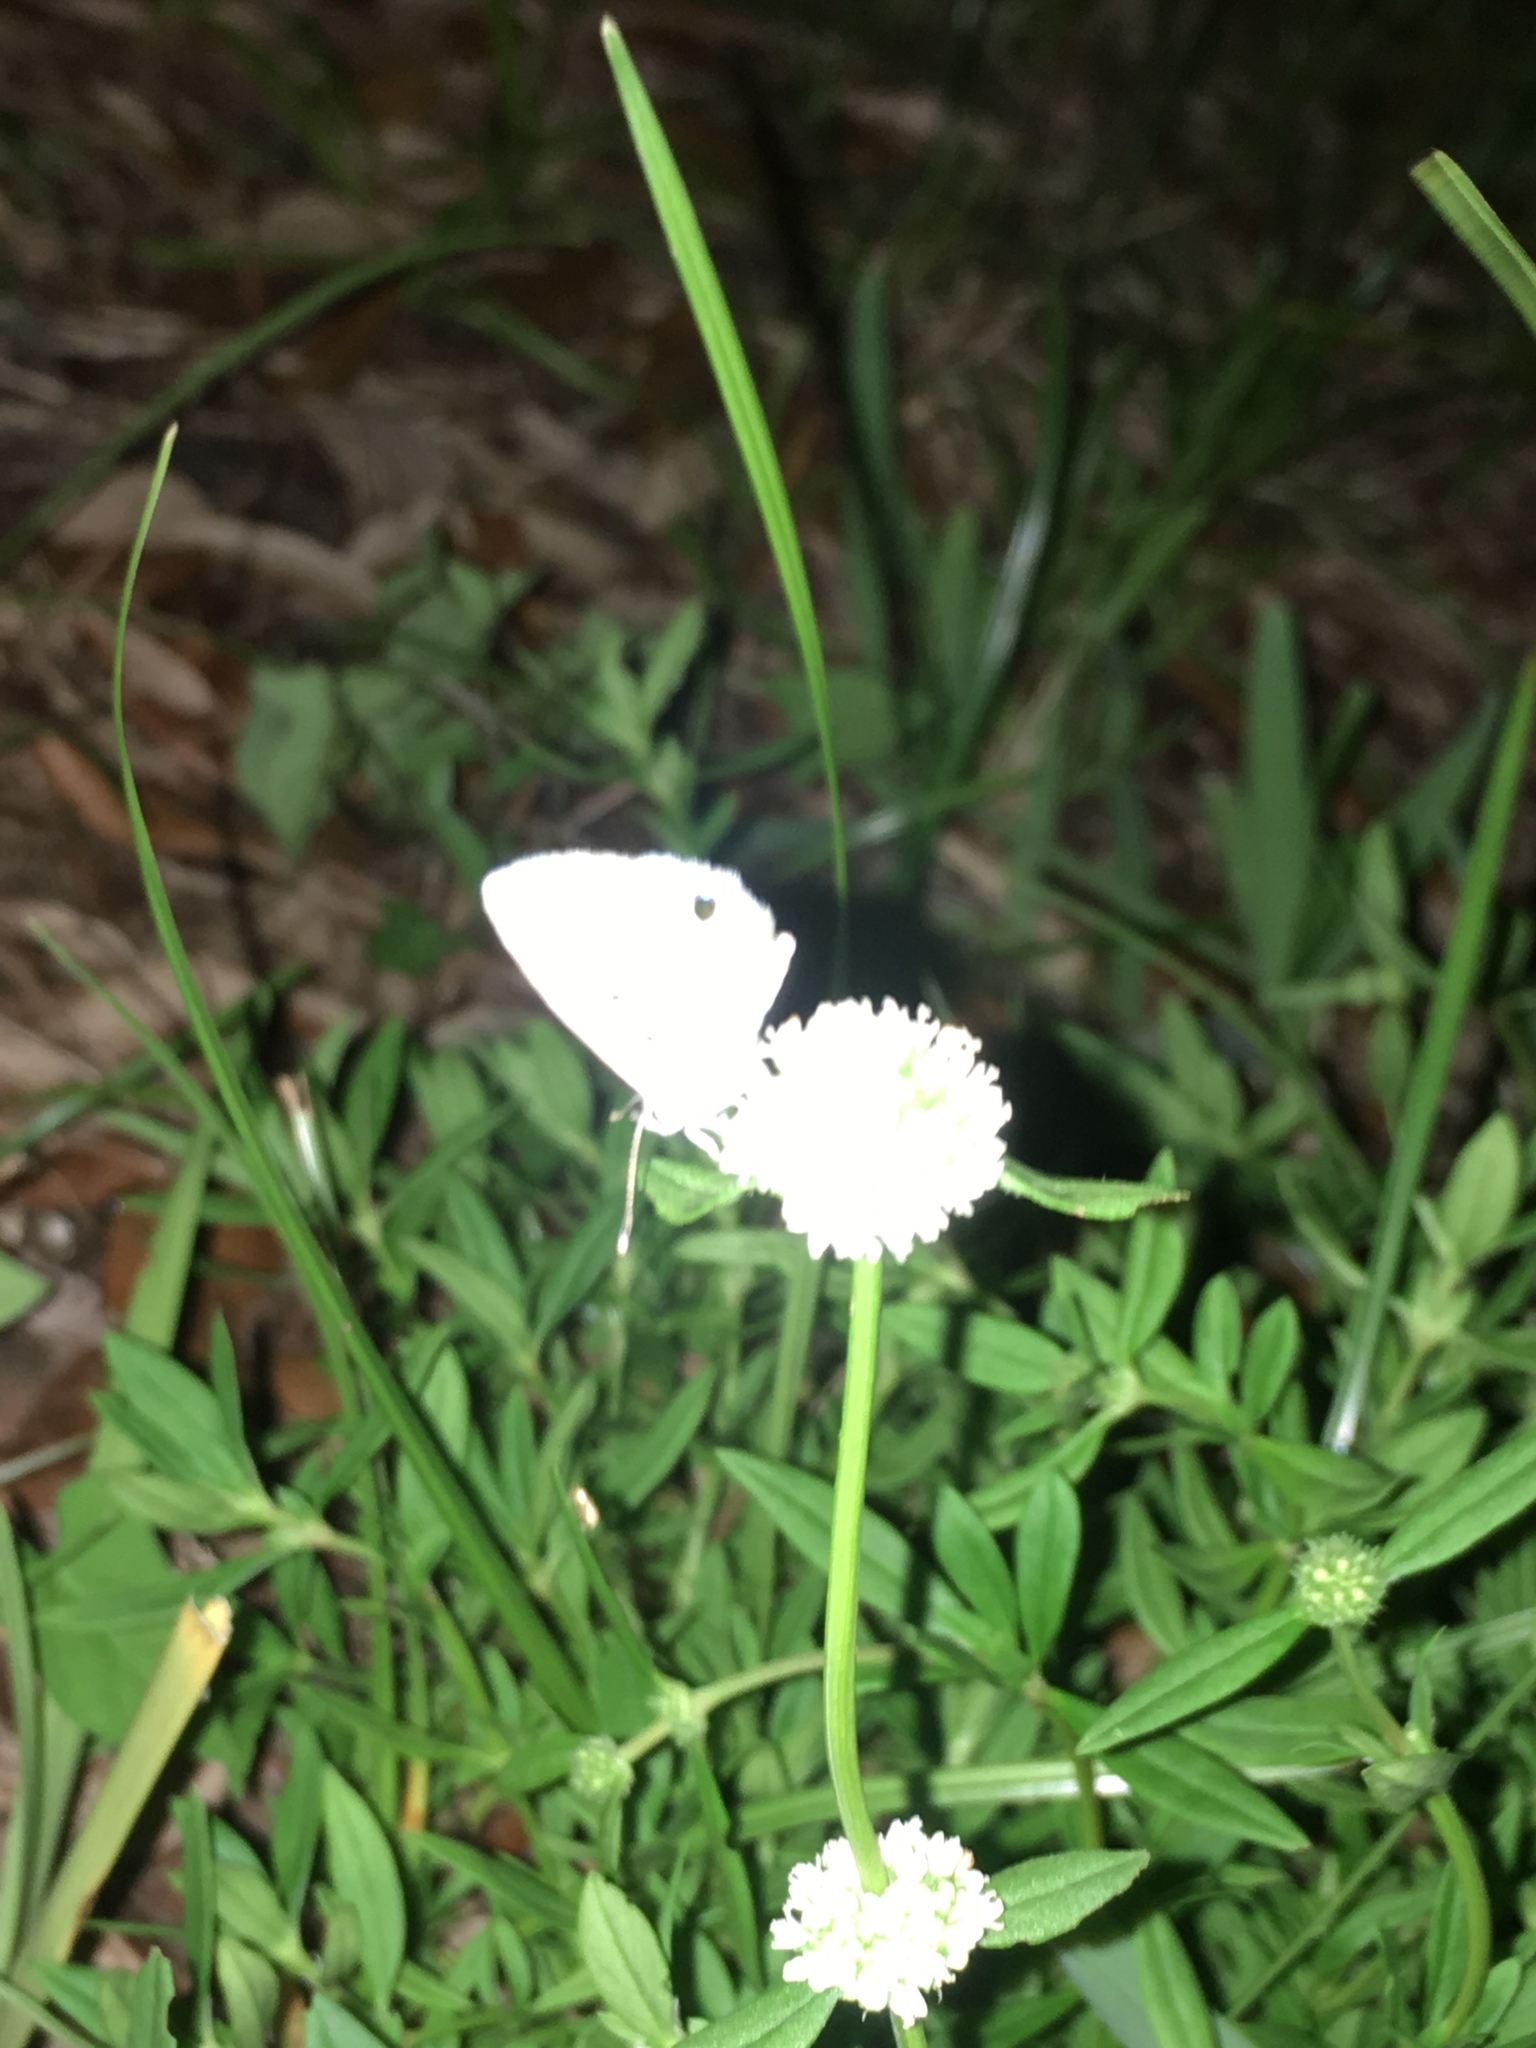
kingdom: Animalia
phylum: Arthropoda
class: Insecta
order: Lepidoptera
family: Lycaenidae
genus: Hemiargus
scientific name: Hemiargus ceraunus
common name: Ceraunus blue
